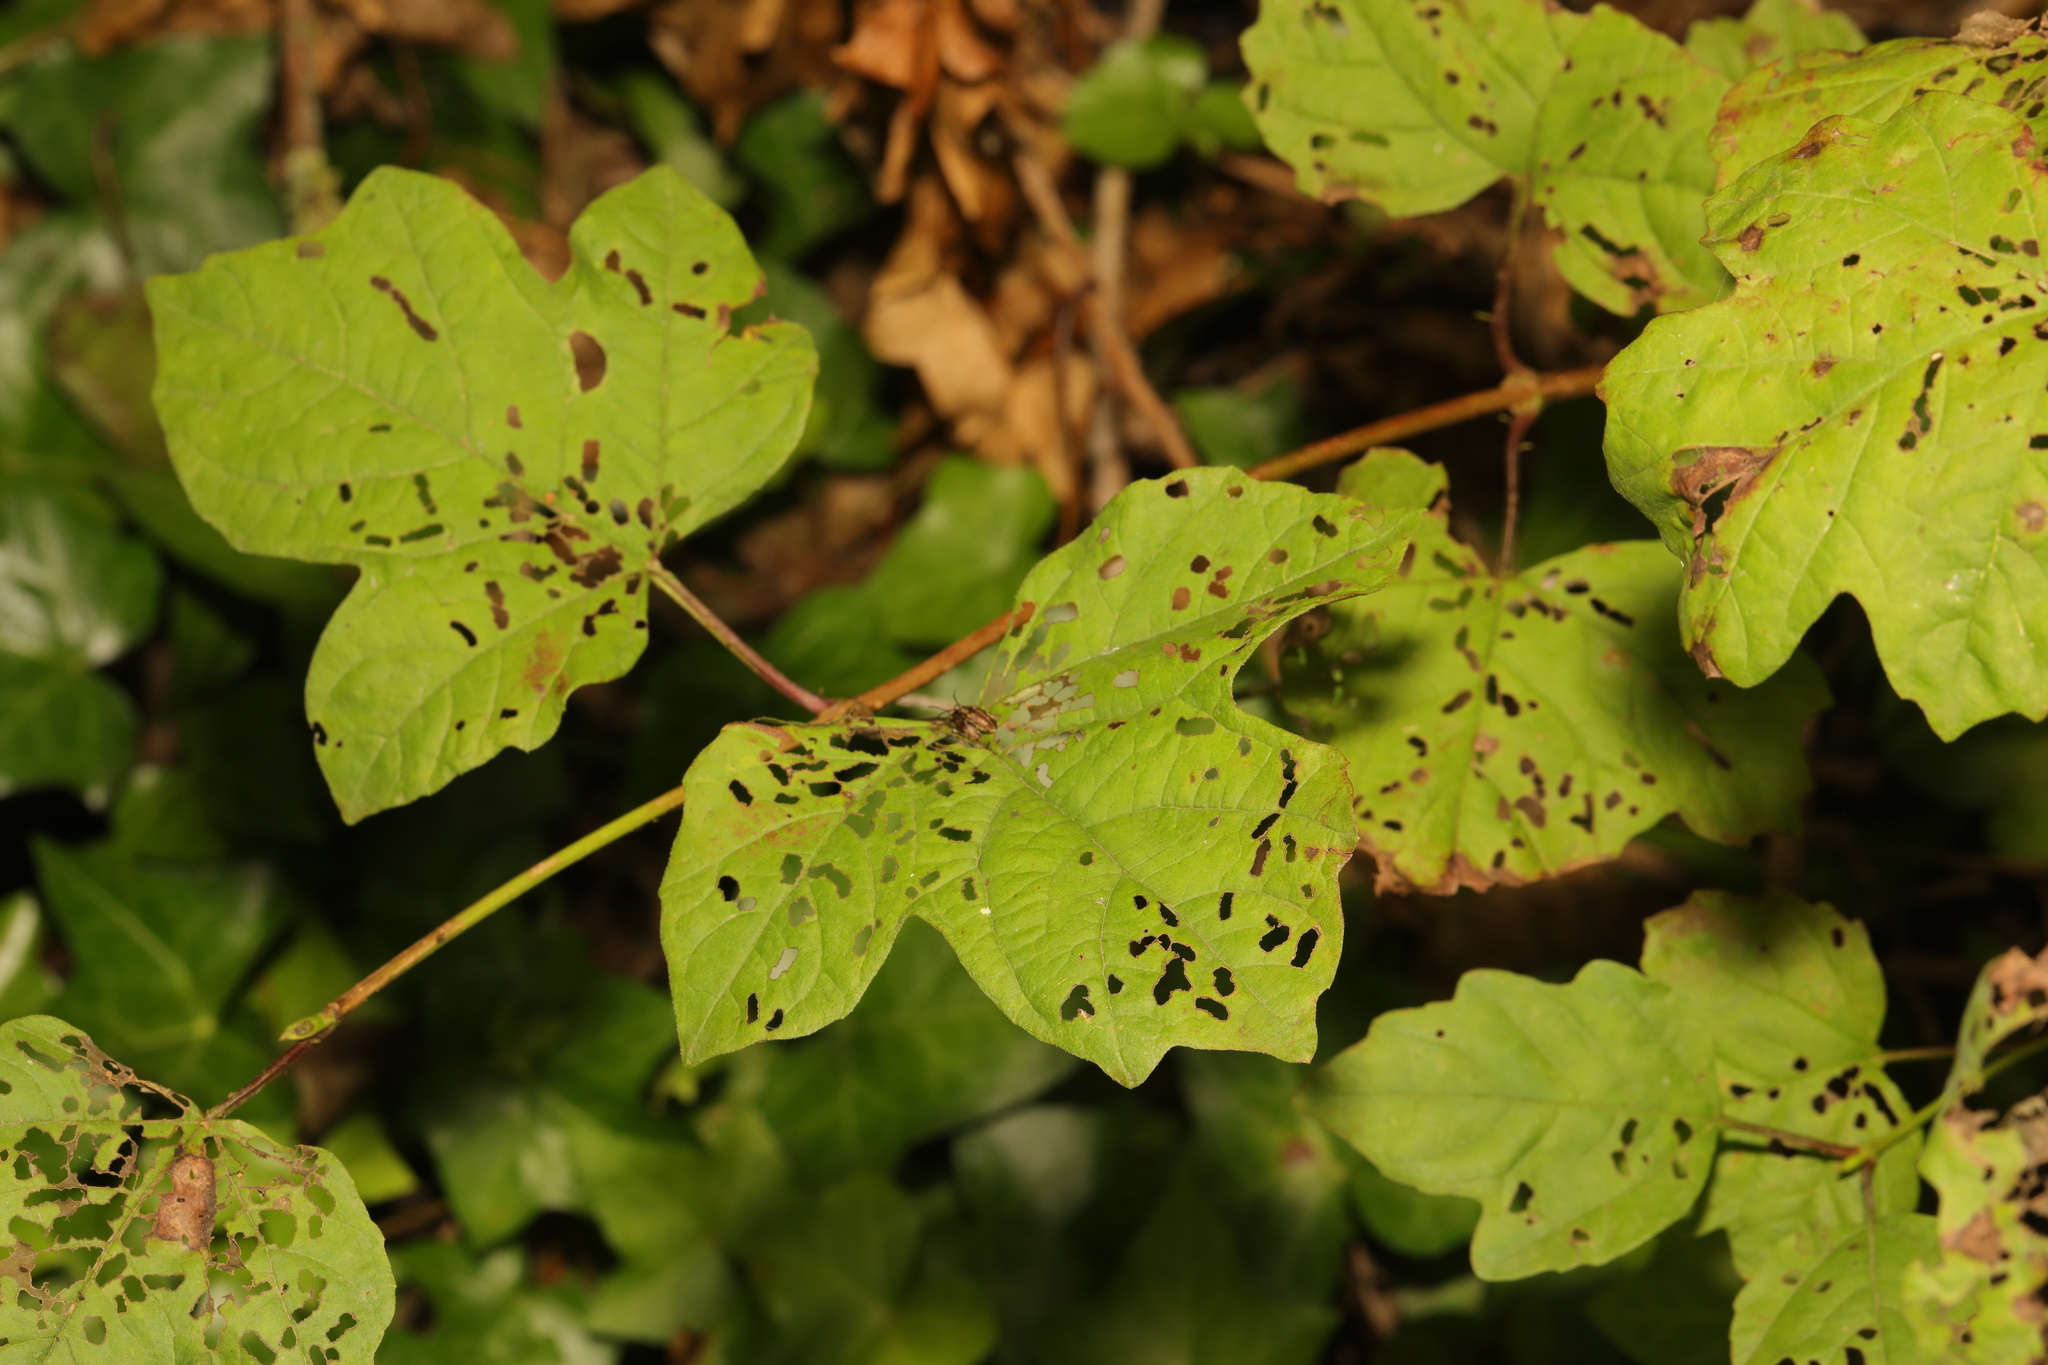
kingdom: Plantae
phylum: Tracheophyta
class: Magnoliopsida
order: Dipsacales
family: Viburnaceae
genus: Viburnum
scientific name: Viburnum opulus
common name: Guelder-rose
